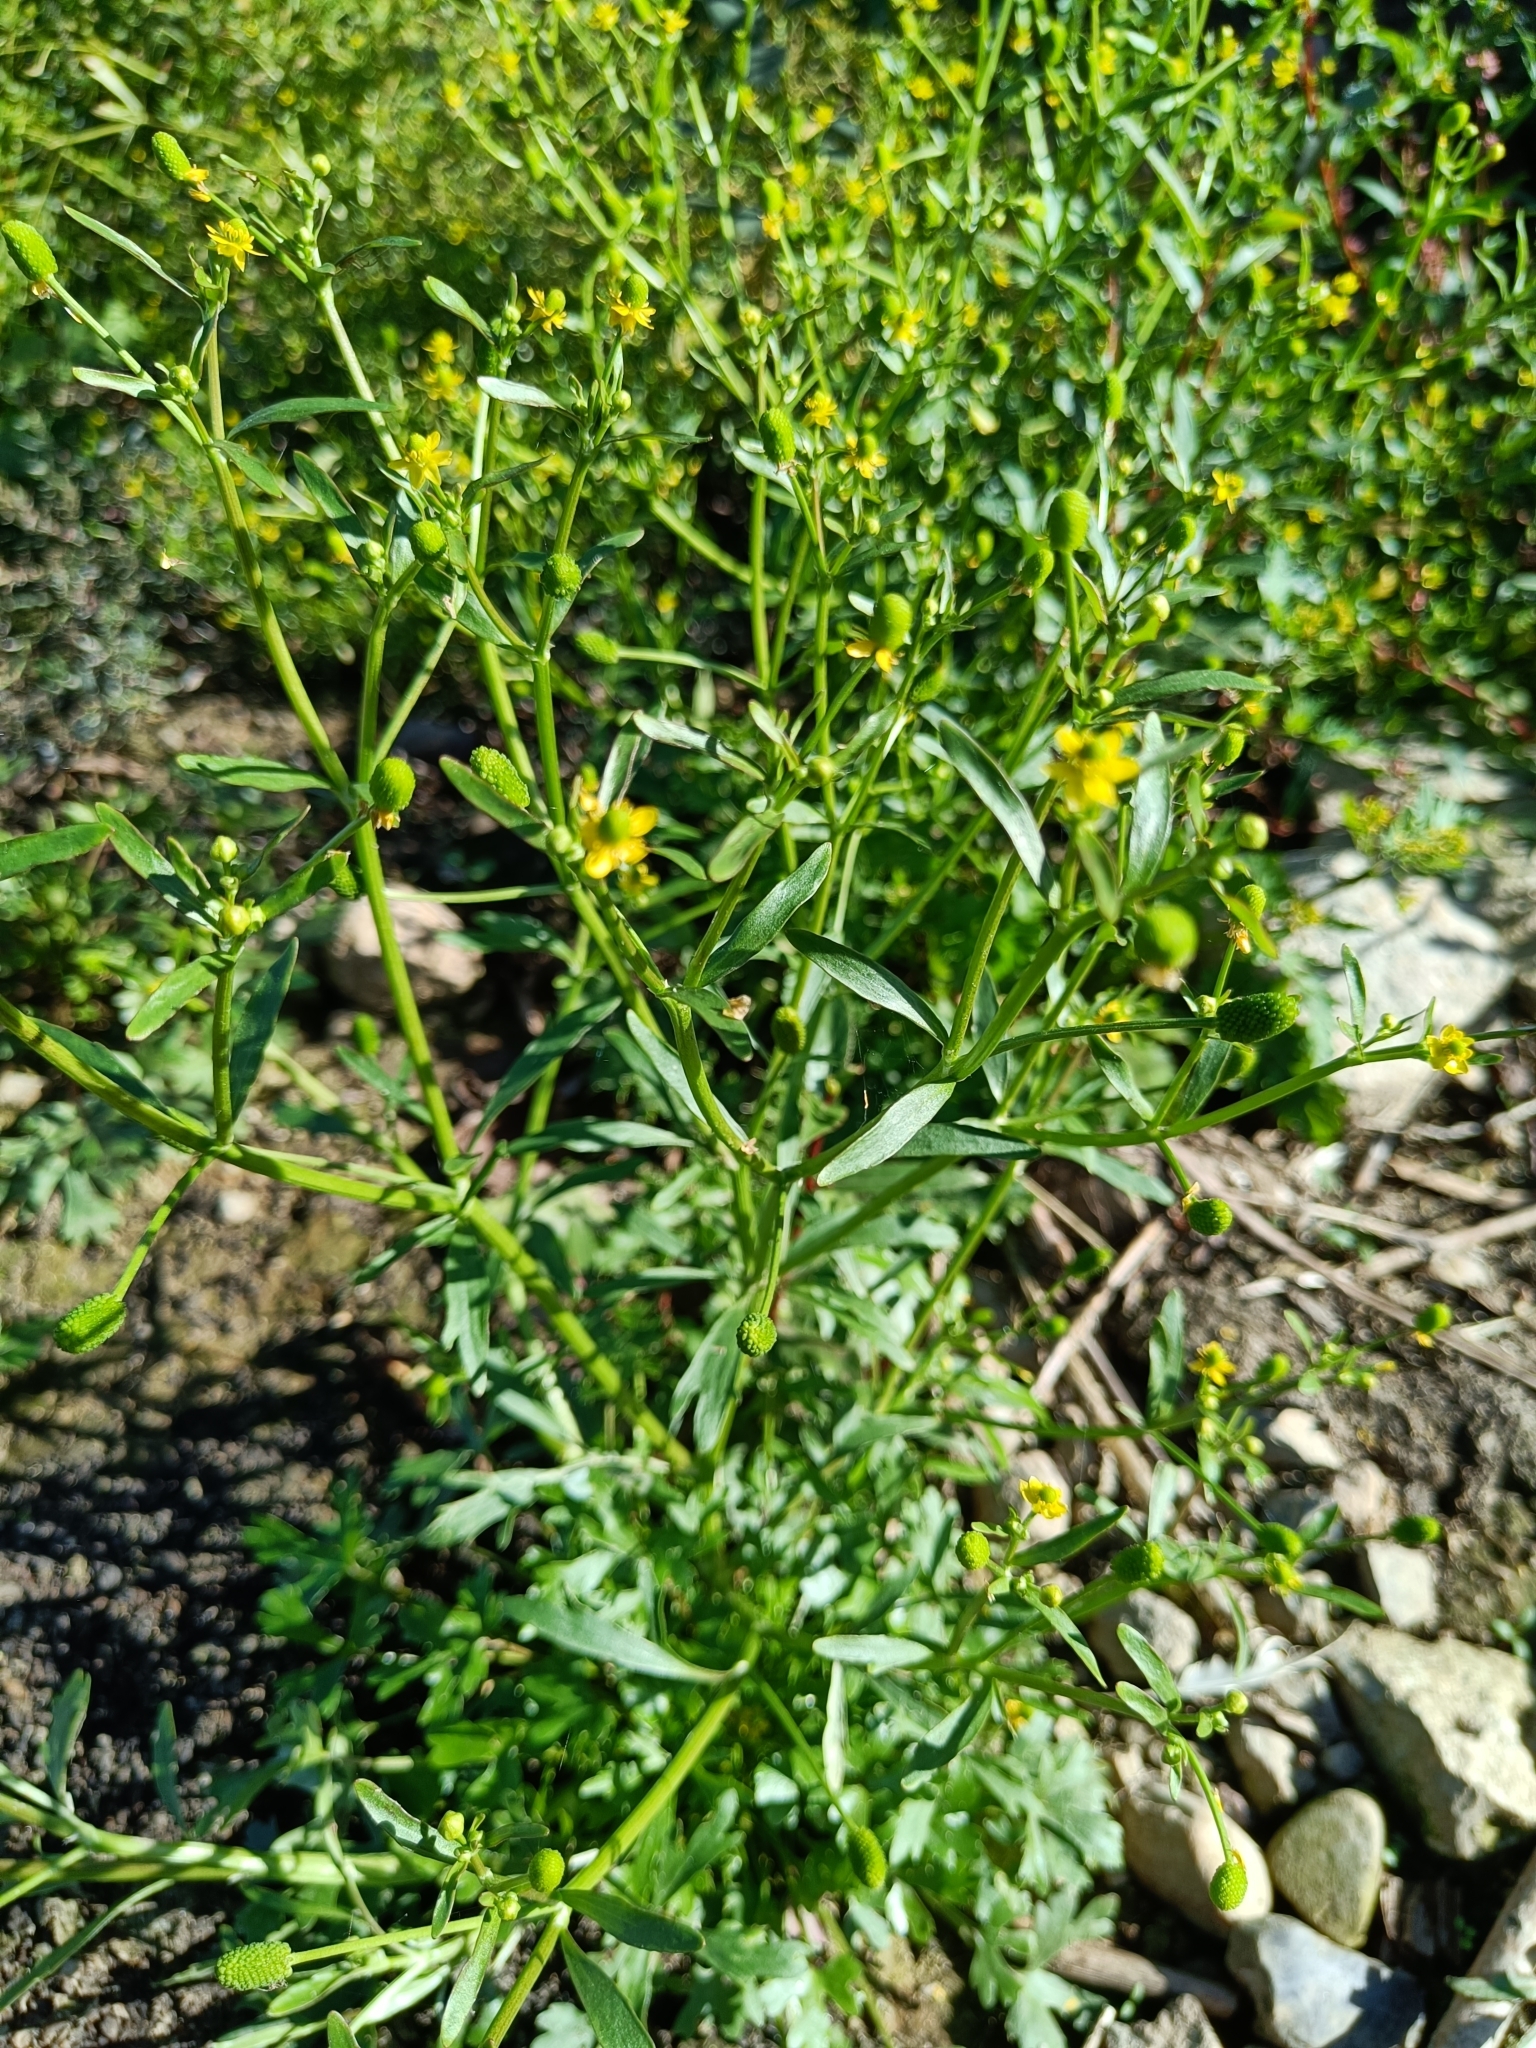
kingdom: Plantae
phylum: Tracheophyta
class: Magnoliopsida
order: Ranunculales
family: Ranunculaceae
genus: Ranunculus
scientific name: Ranunculus sceleratus
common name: Celery-leaved buttercup
